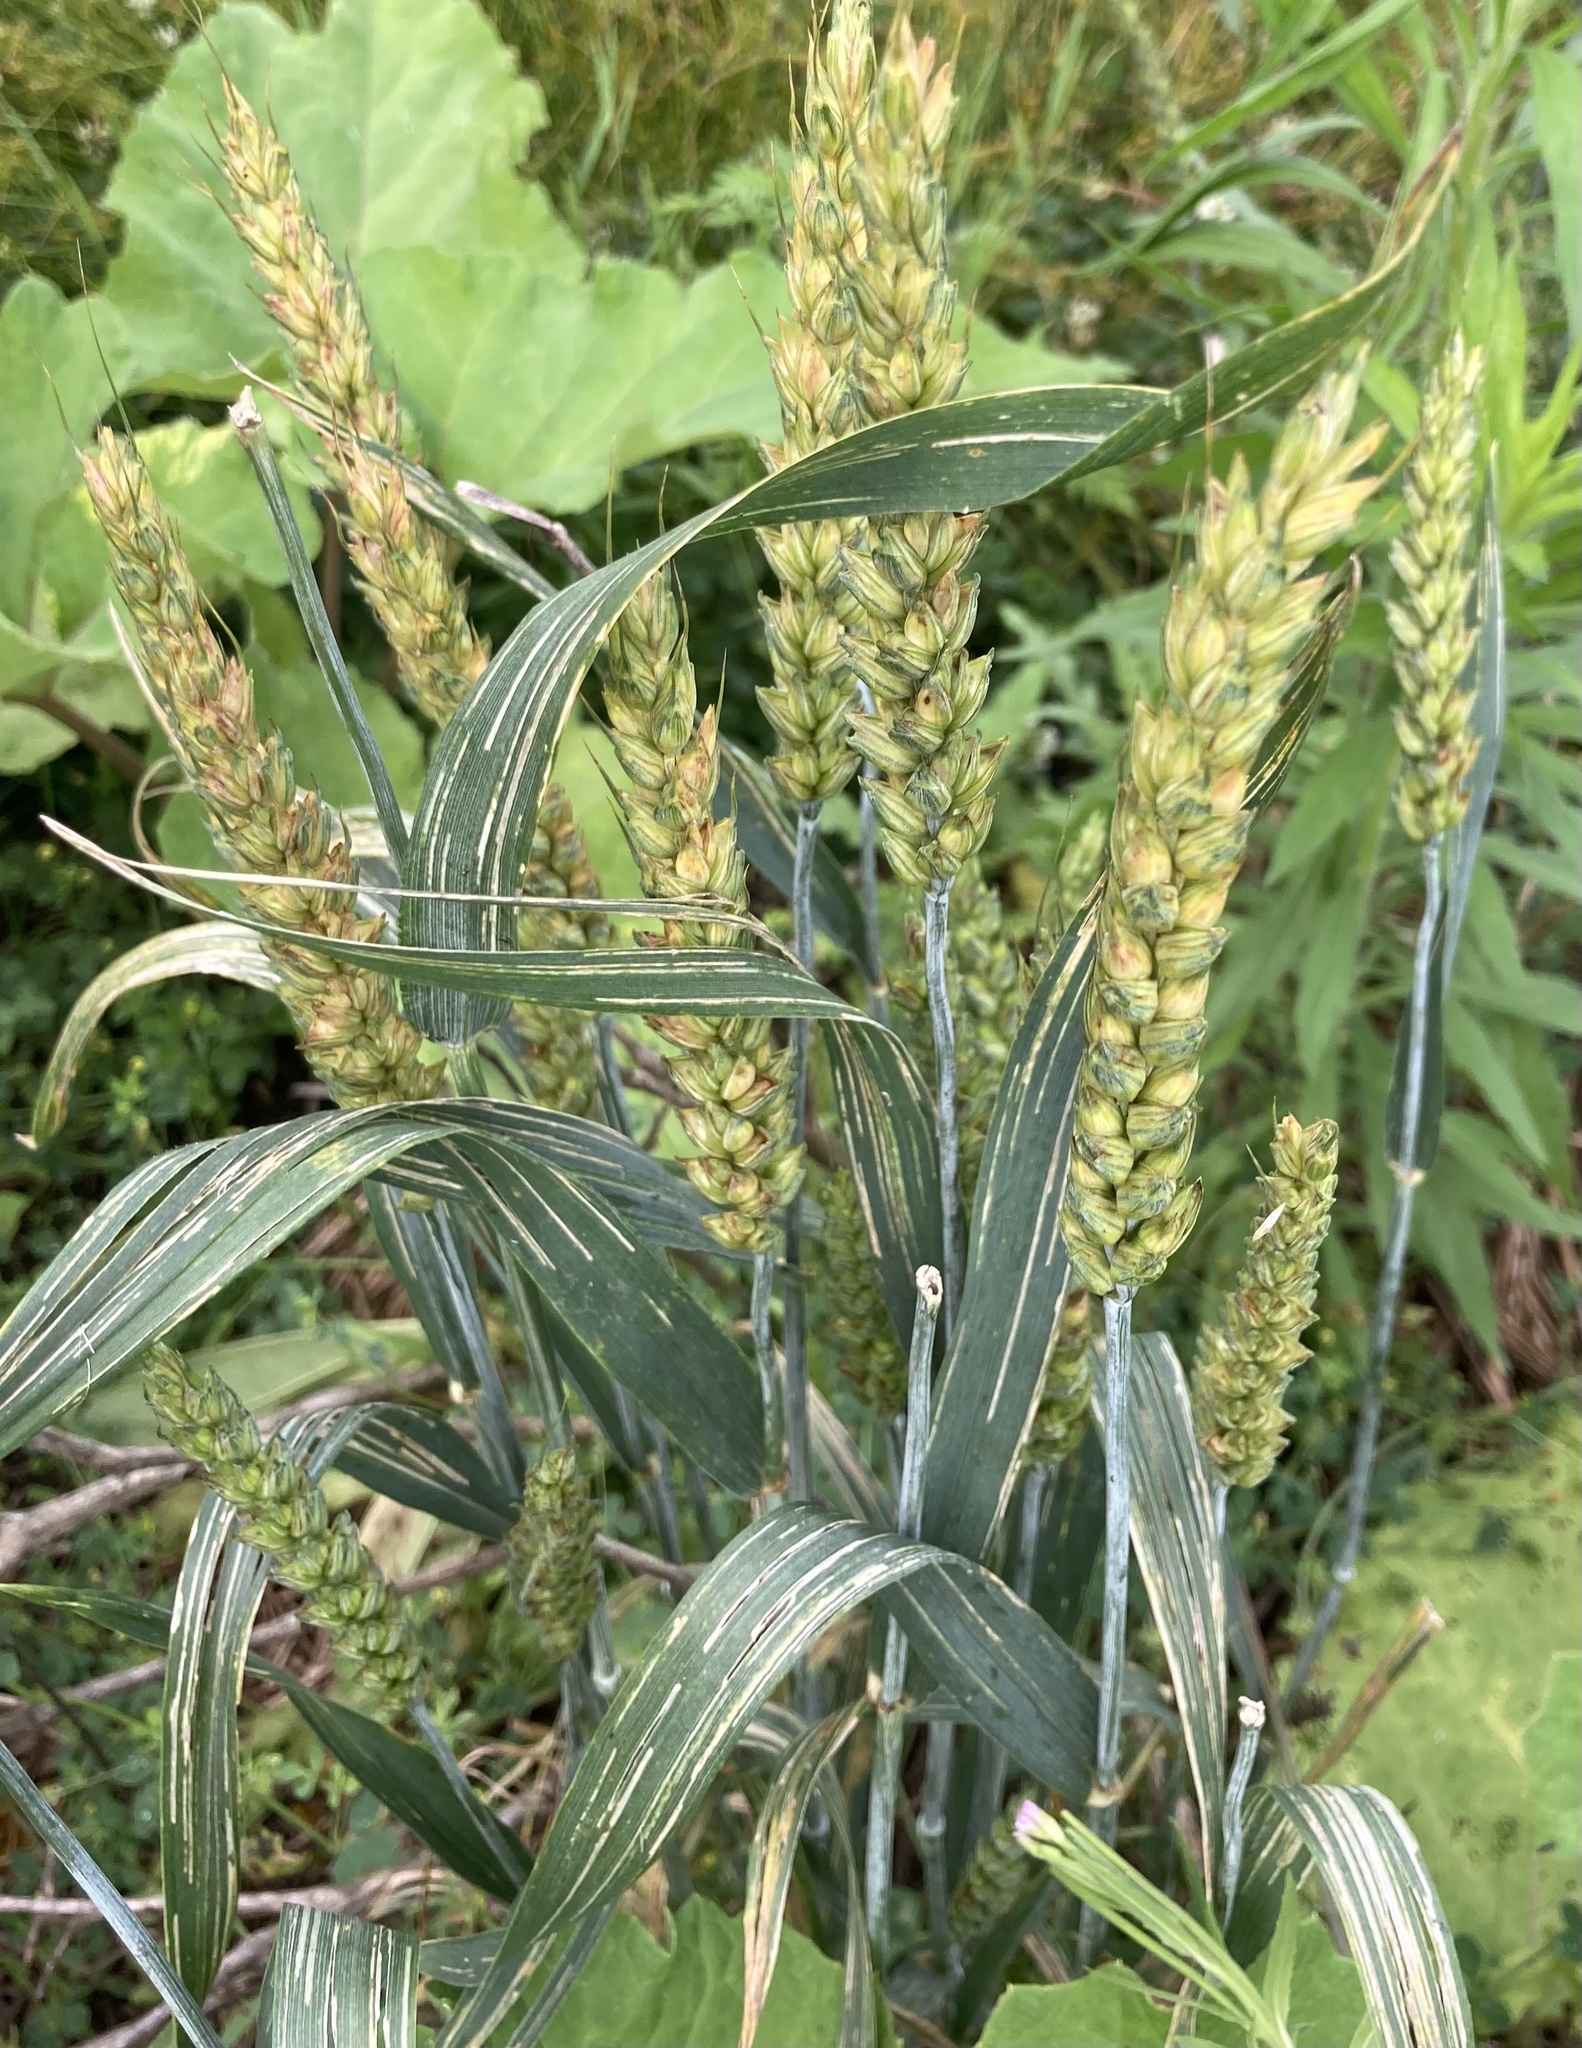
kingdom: Plantae
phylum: Tracheophyta
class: Liliopsida
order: Poales
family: Poaceae
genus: Triticum
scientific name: Triticum aestivum
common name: Common wheat
